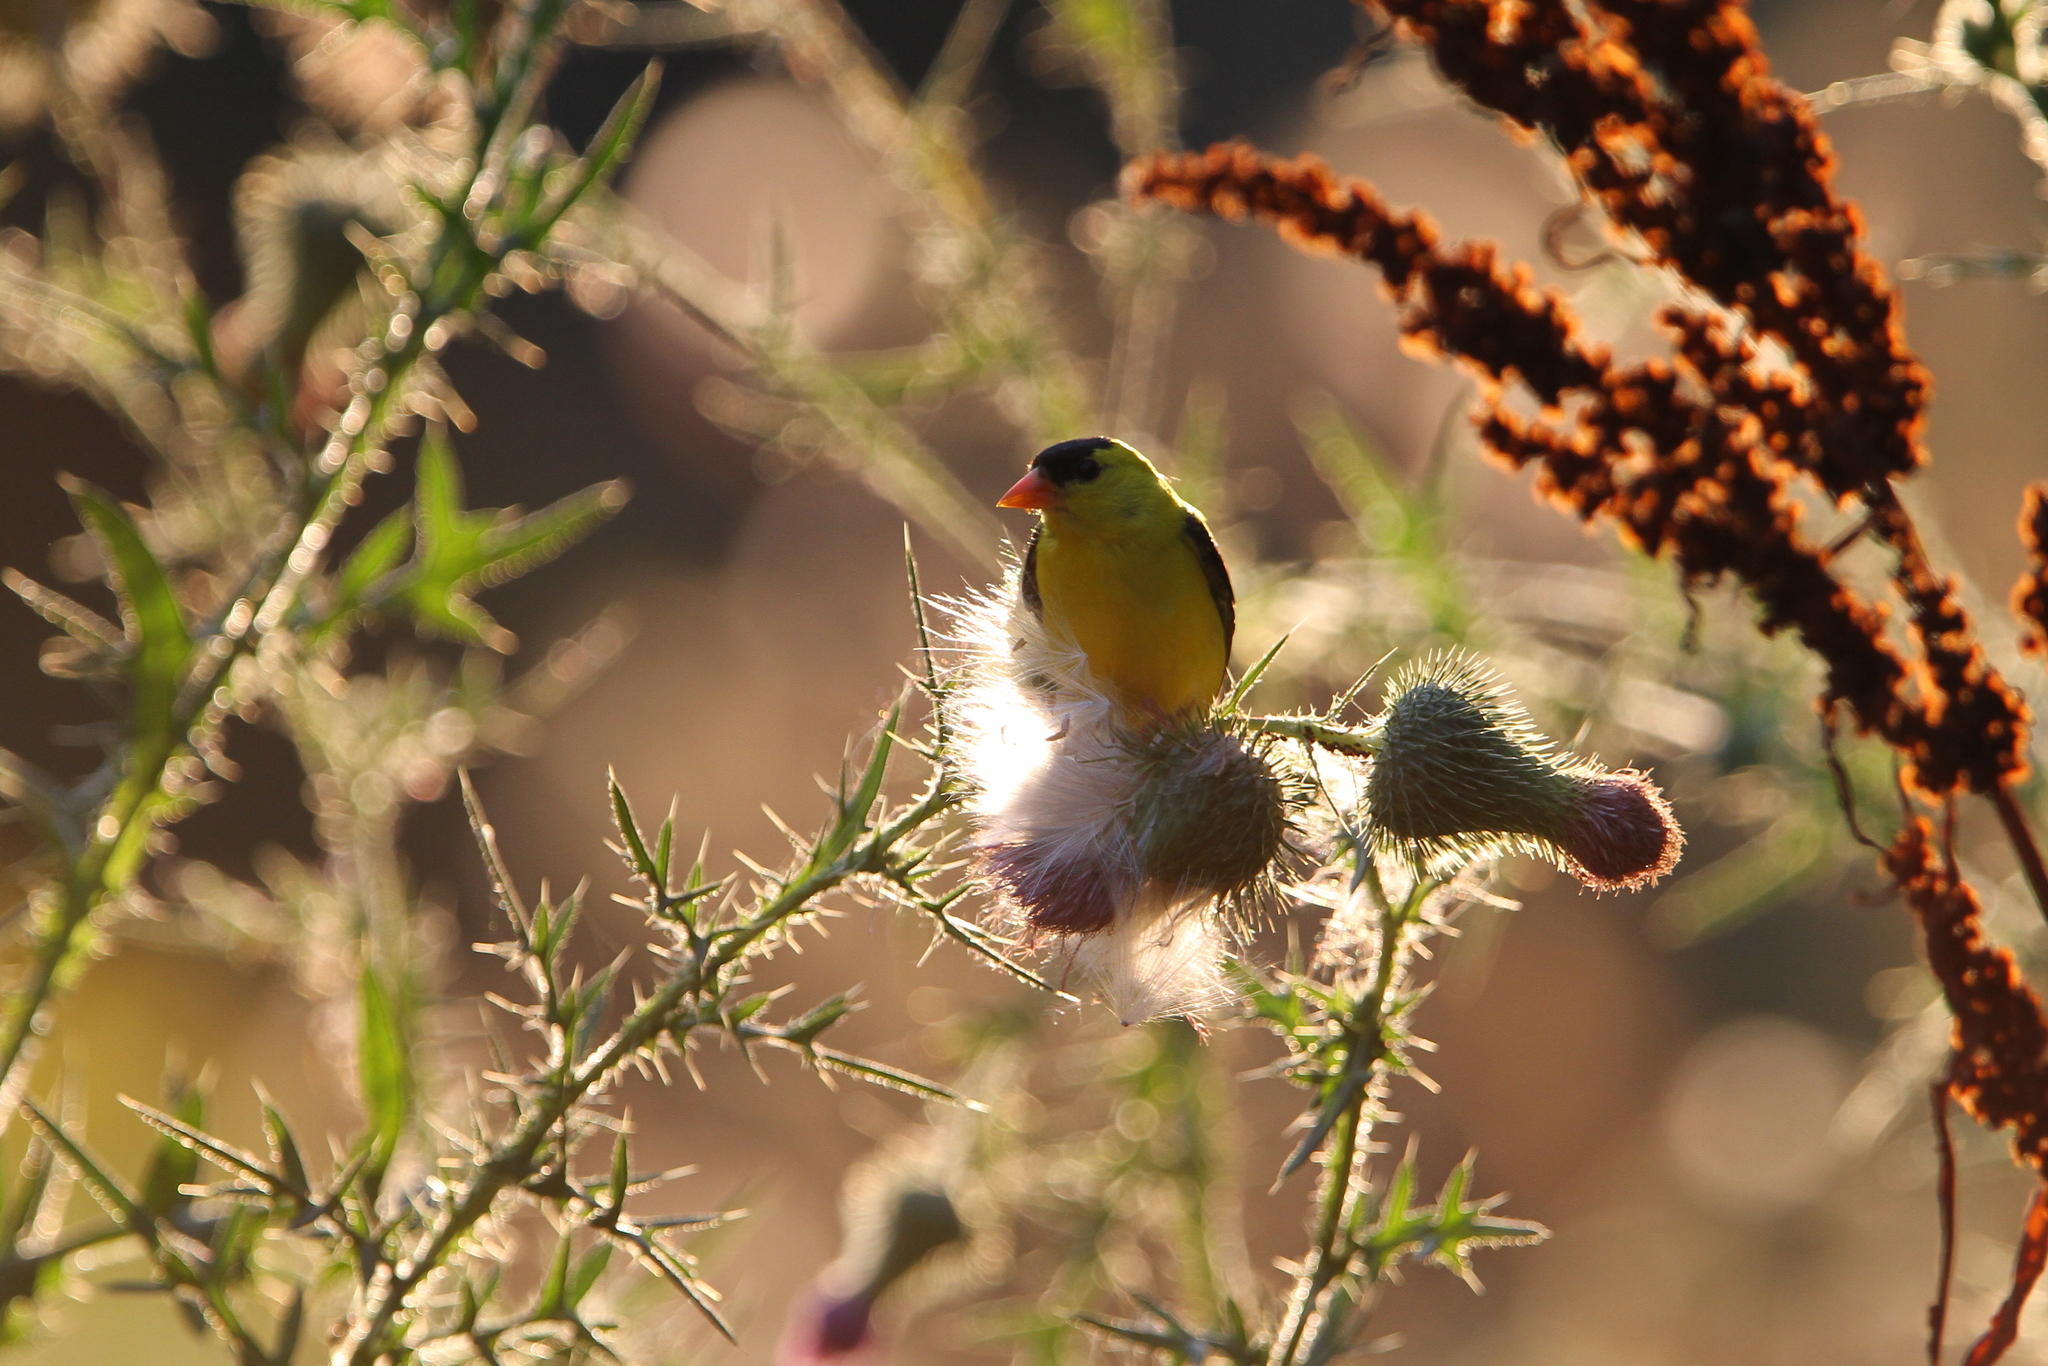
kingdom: Animalia
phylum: Chordata
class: Aves
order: Passeriformes
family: Fringillidae
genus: Spinus
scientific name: Spinus tristis
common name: American goldfinch
